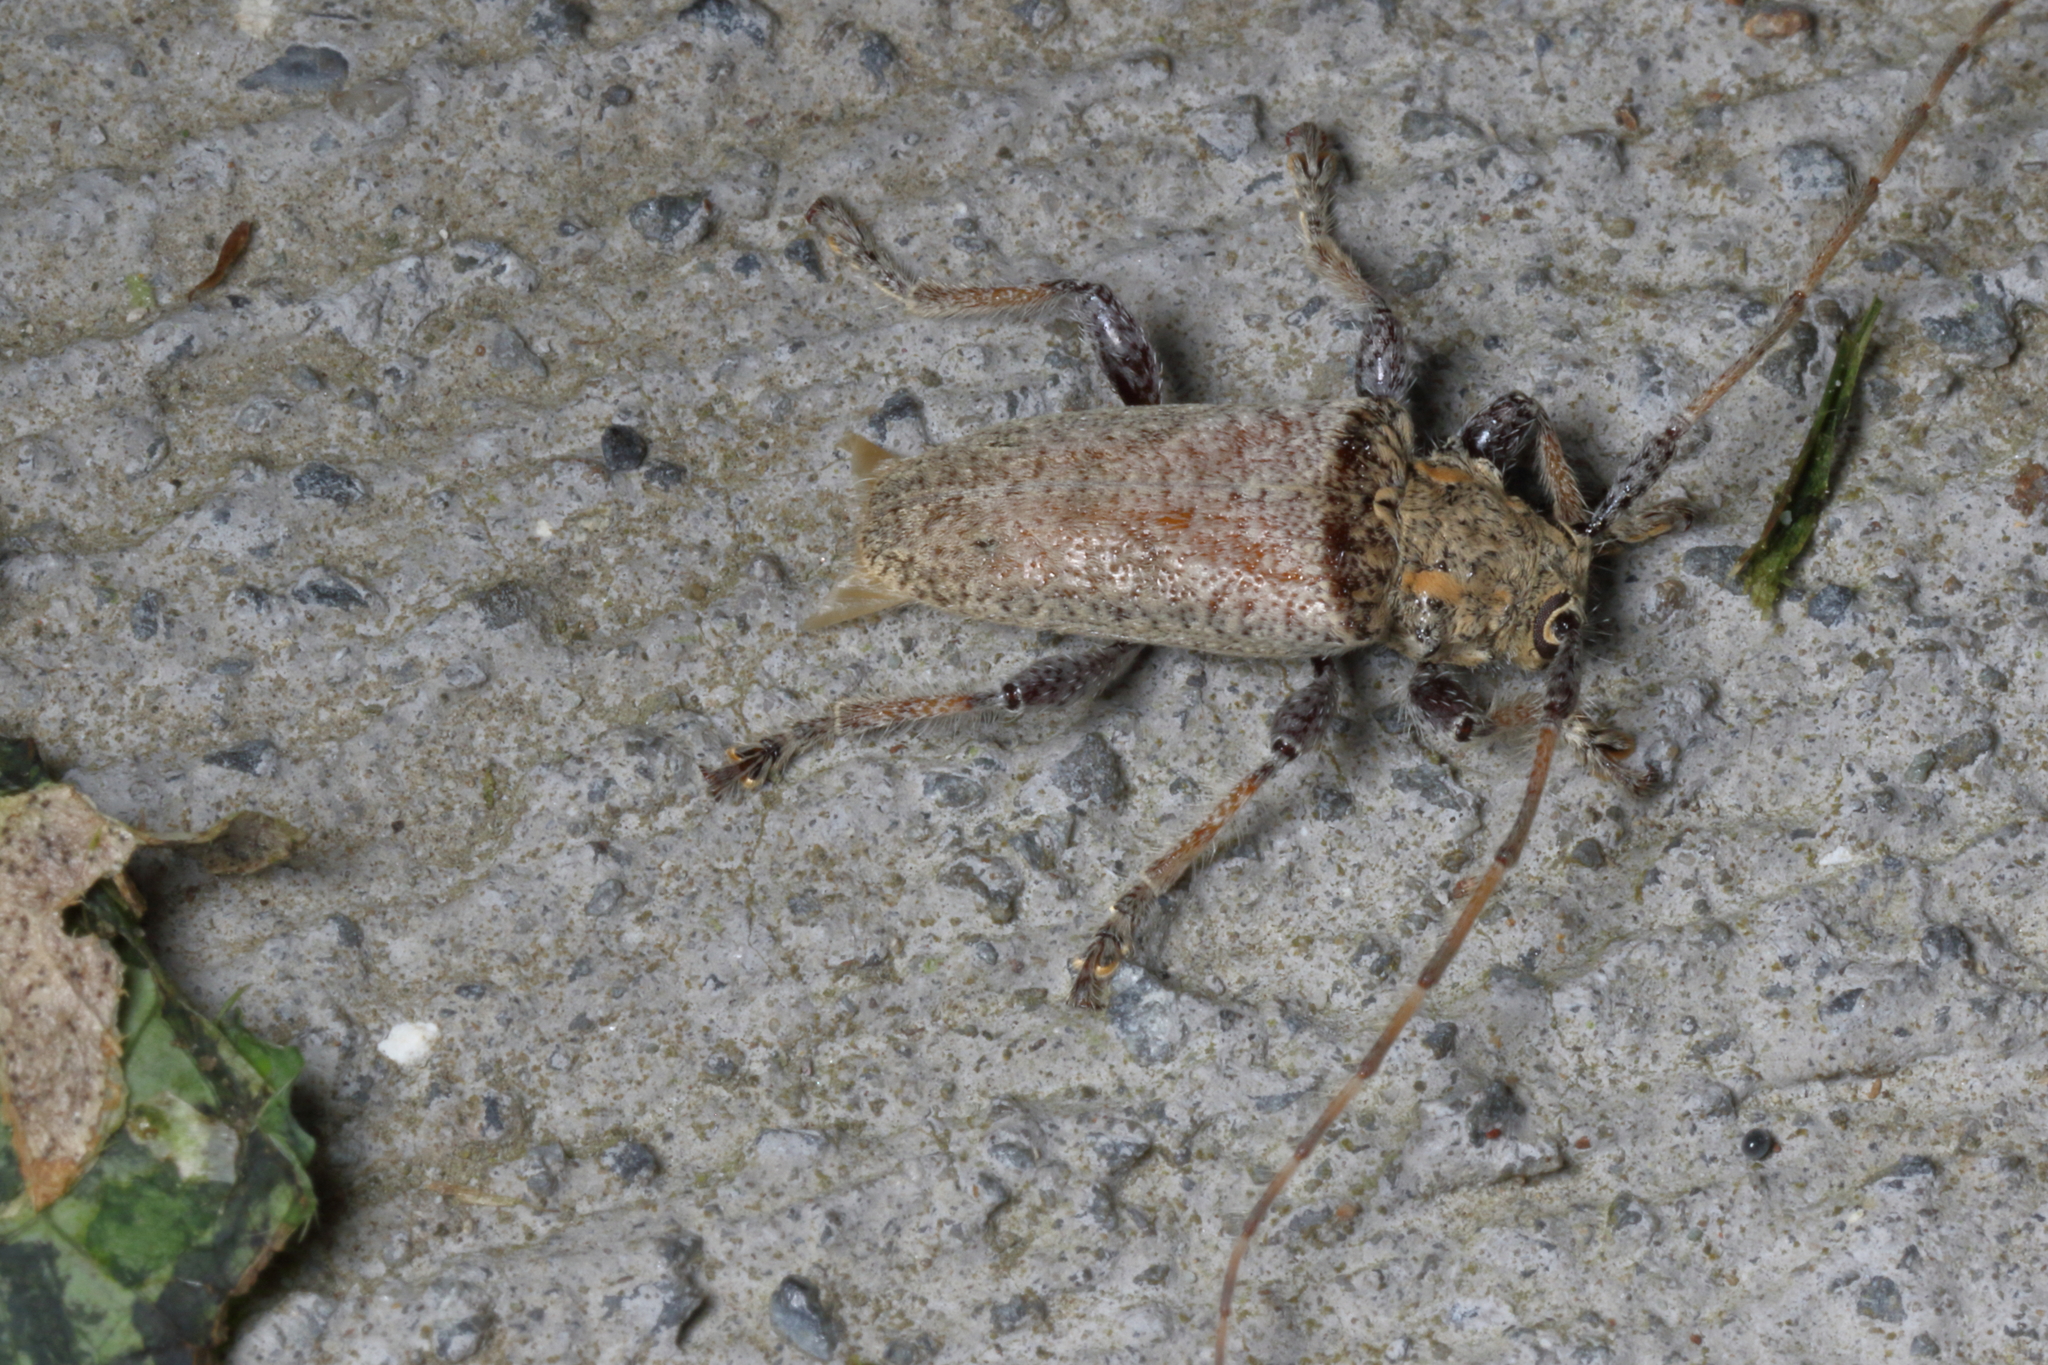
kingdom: Animalia
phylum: Arthropoda
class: Insecta
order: Coleoptera
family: Cerambycidae
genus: Polyacanthia
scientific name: Polyacanthia flavipes
